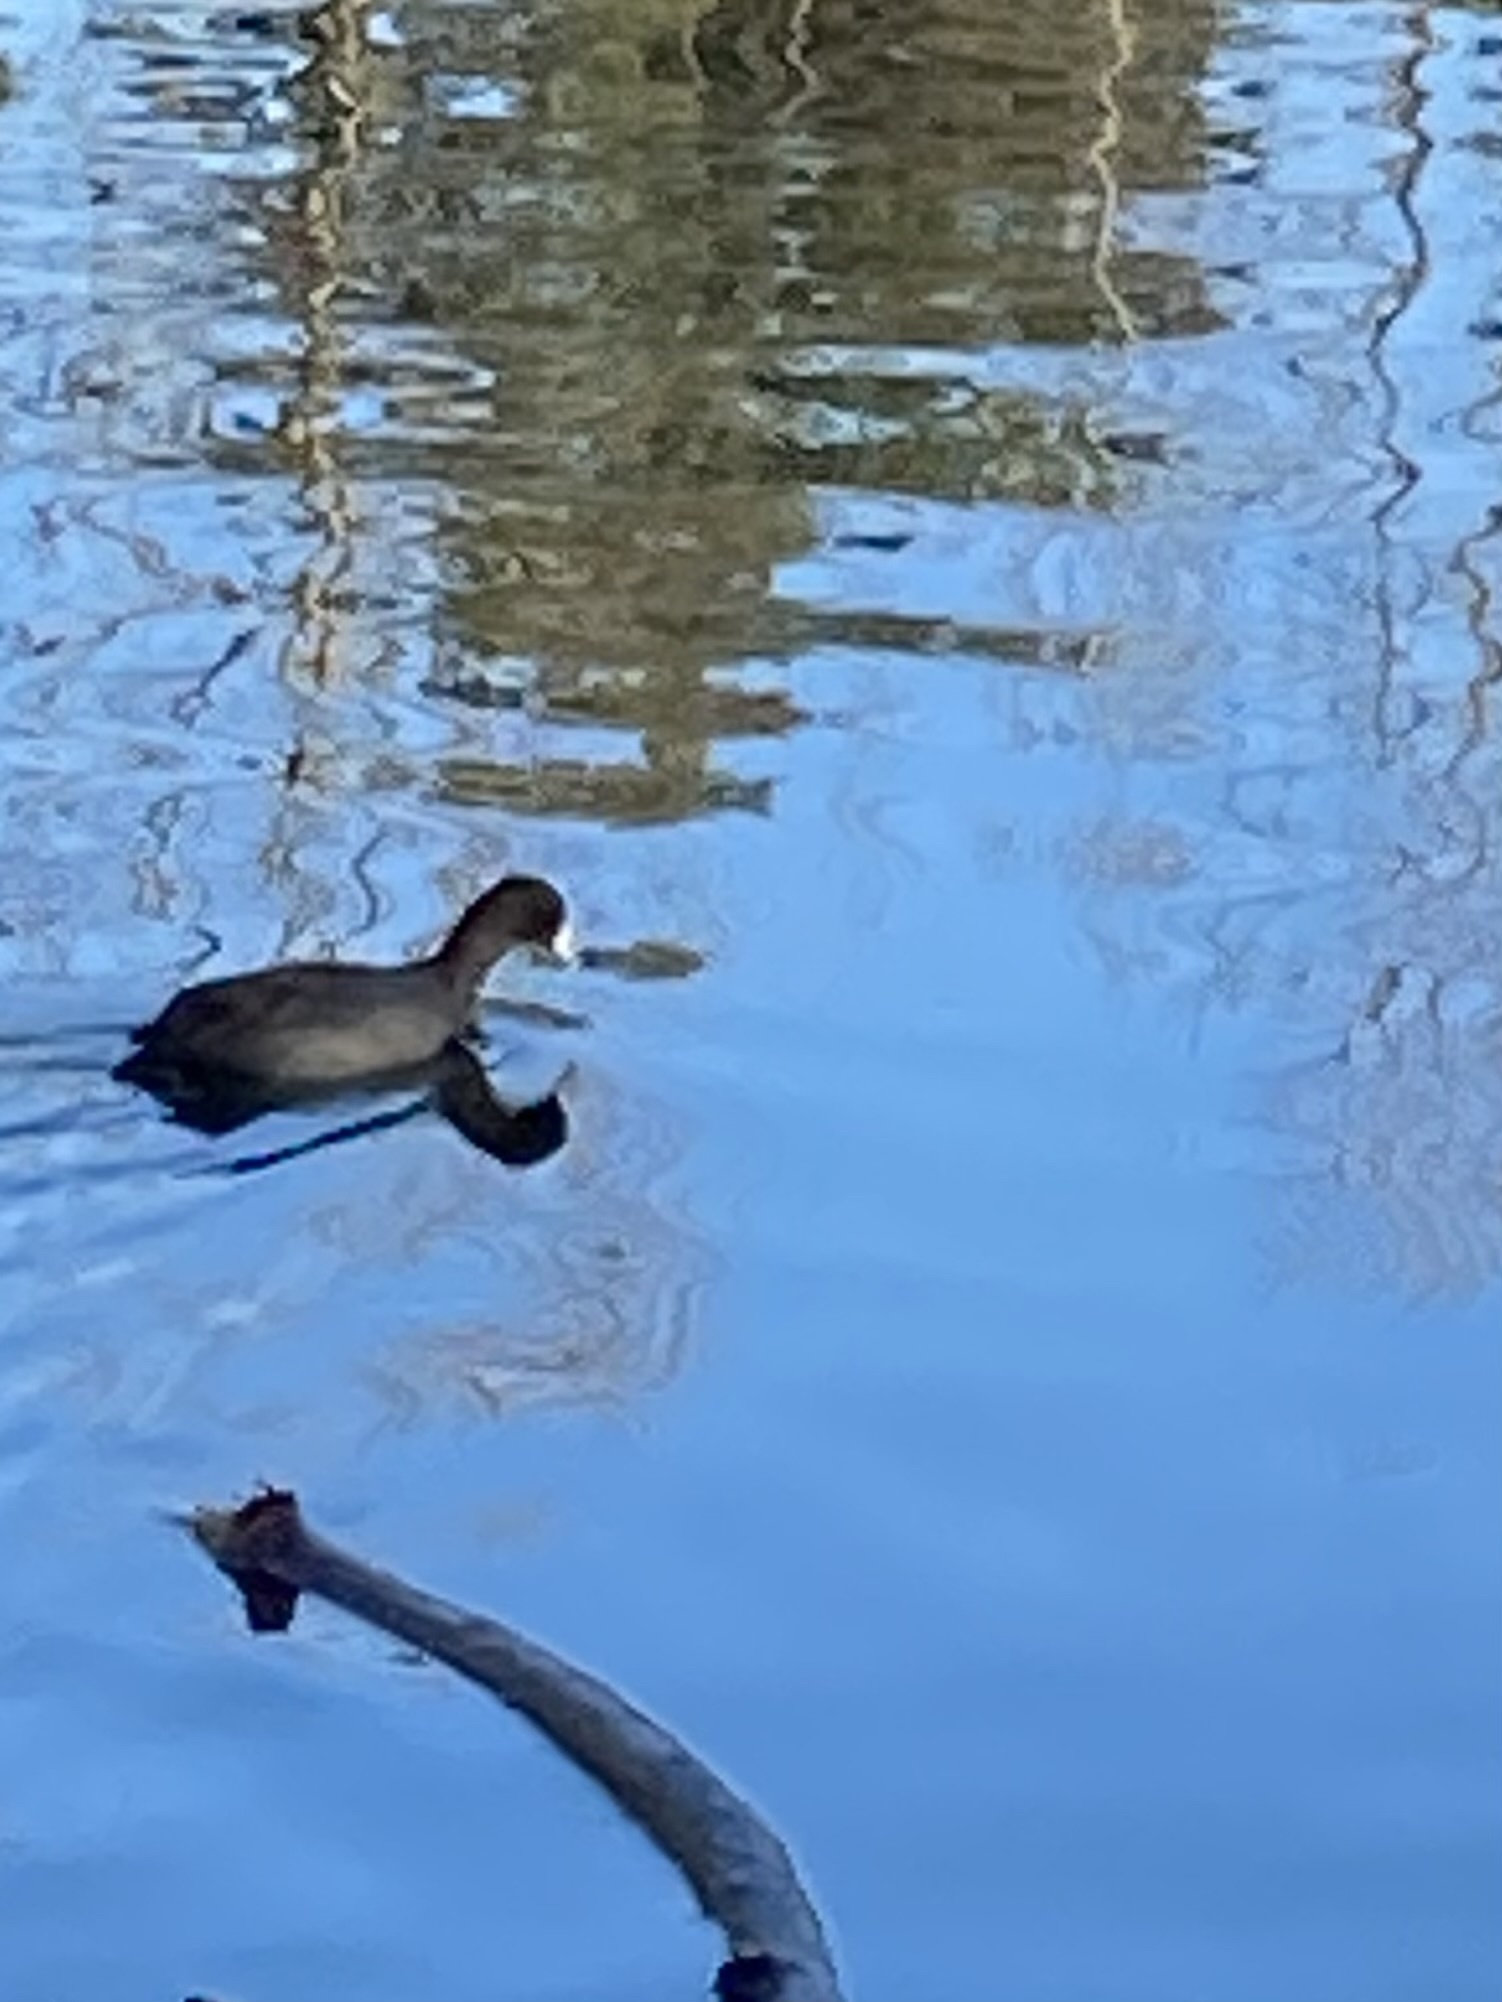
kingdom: Animalia
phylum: Chordata
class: Aves
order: Gruiformes
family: Rallidae
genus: Fulica
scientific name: Fulica americana
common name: American coot
